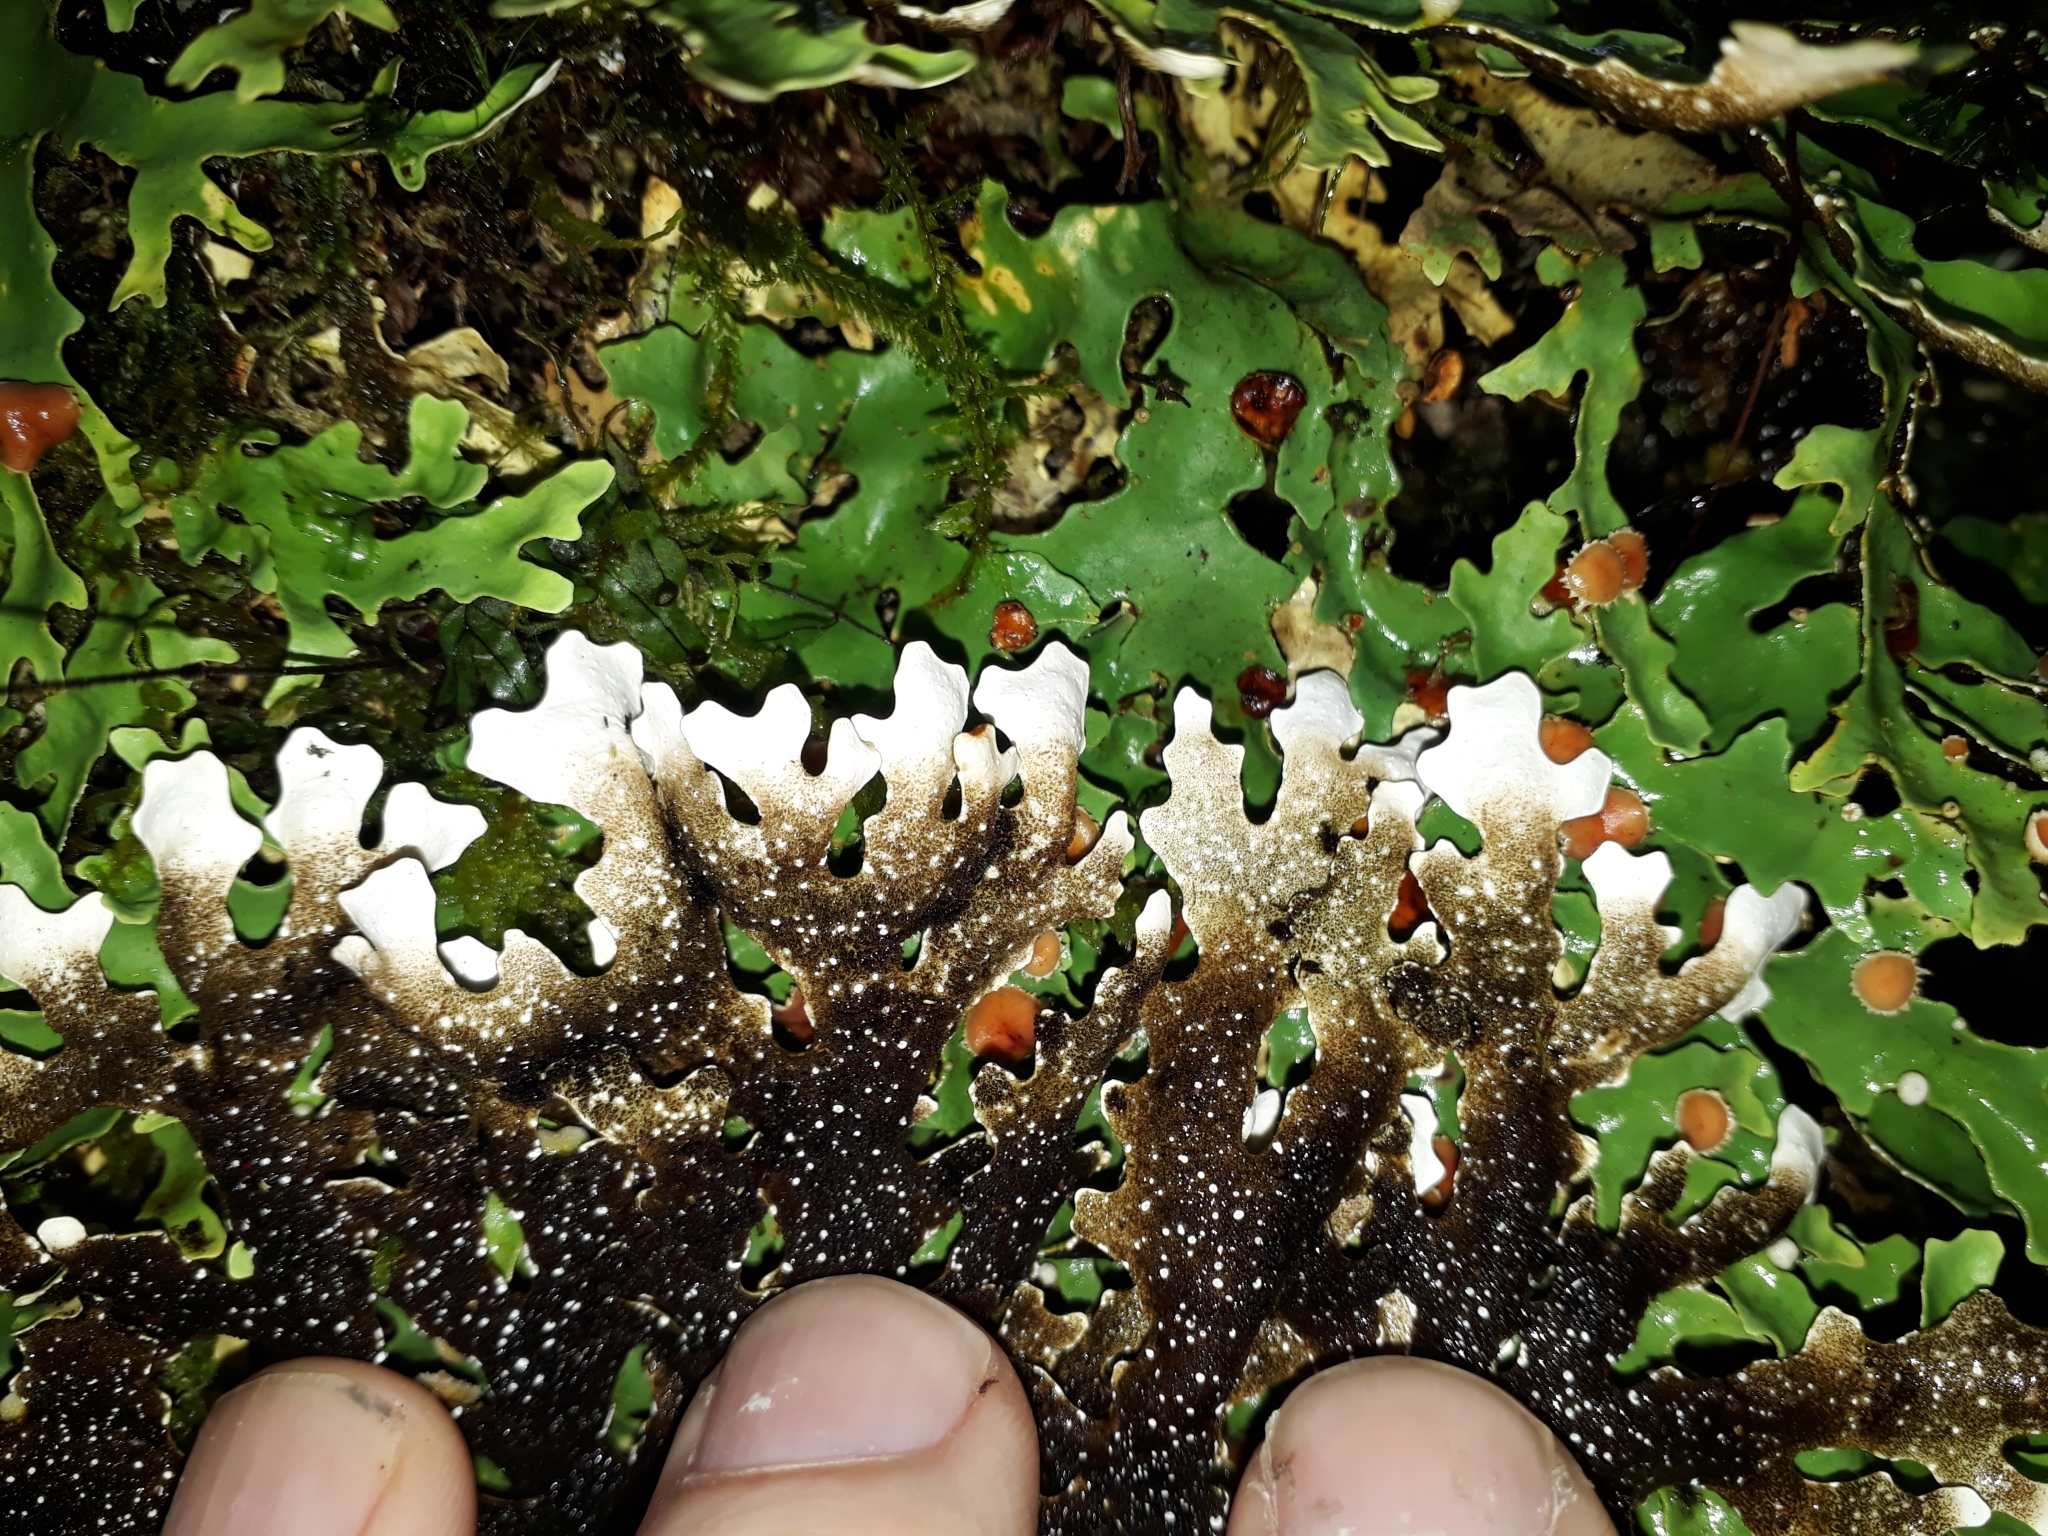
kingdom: Fungi
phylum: Ascomycota
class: Lecanoromycetes
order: Peltigerales
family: Lobariaceae
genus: Pseudocyphellaria
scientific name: Pseudocyphellaria homeophylla
